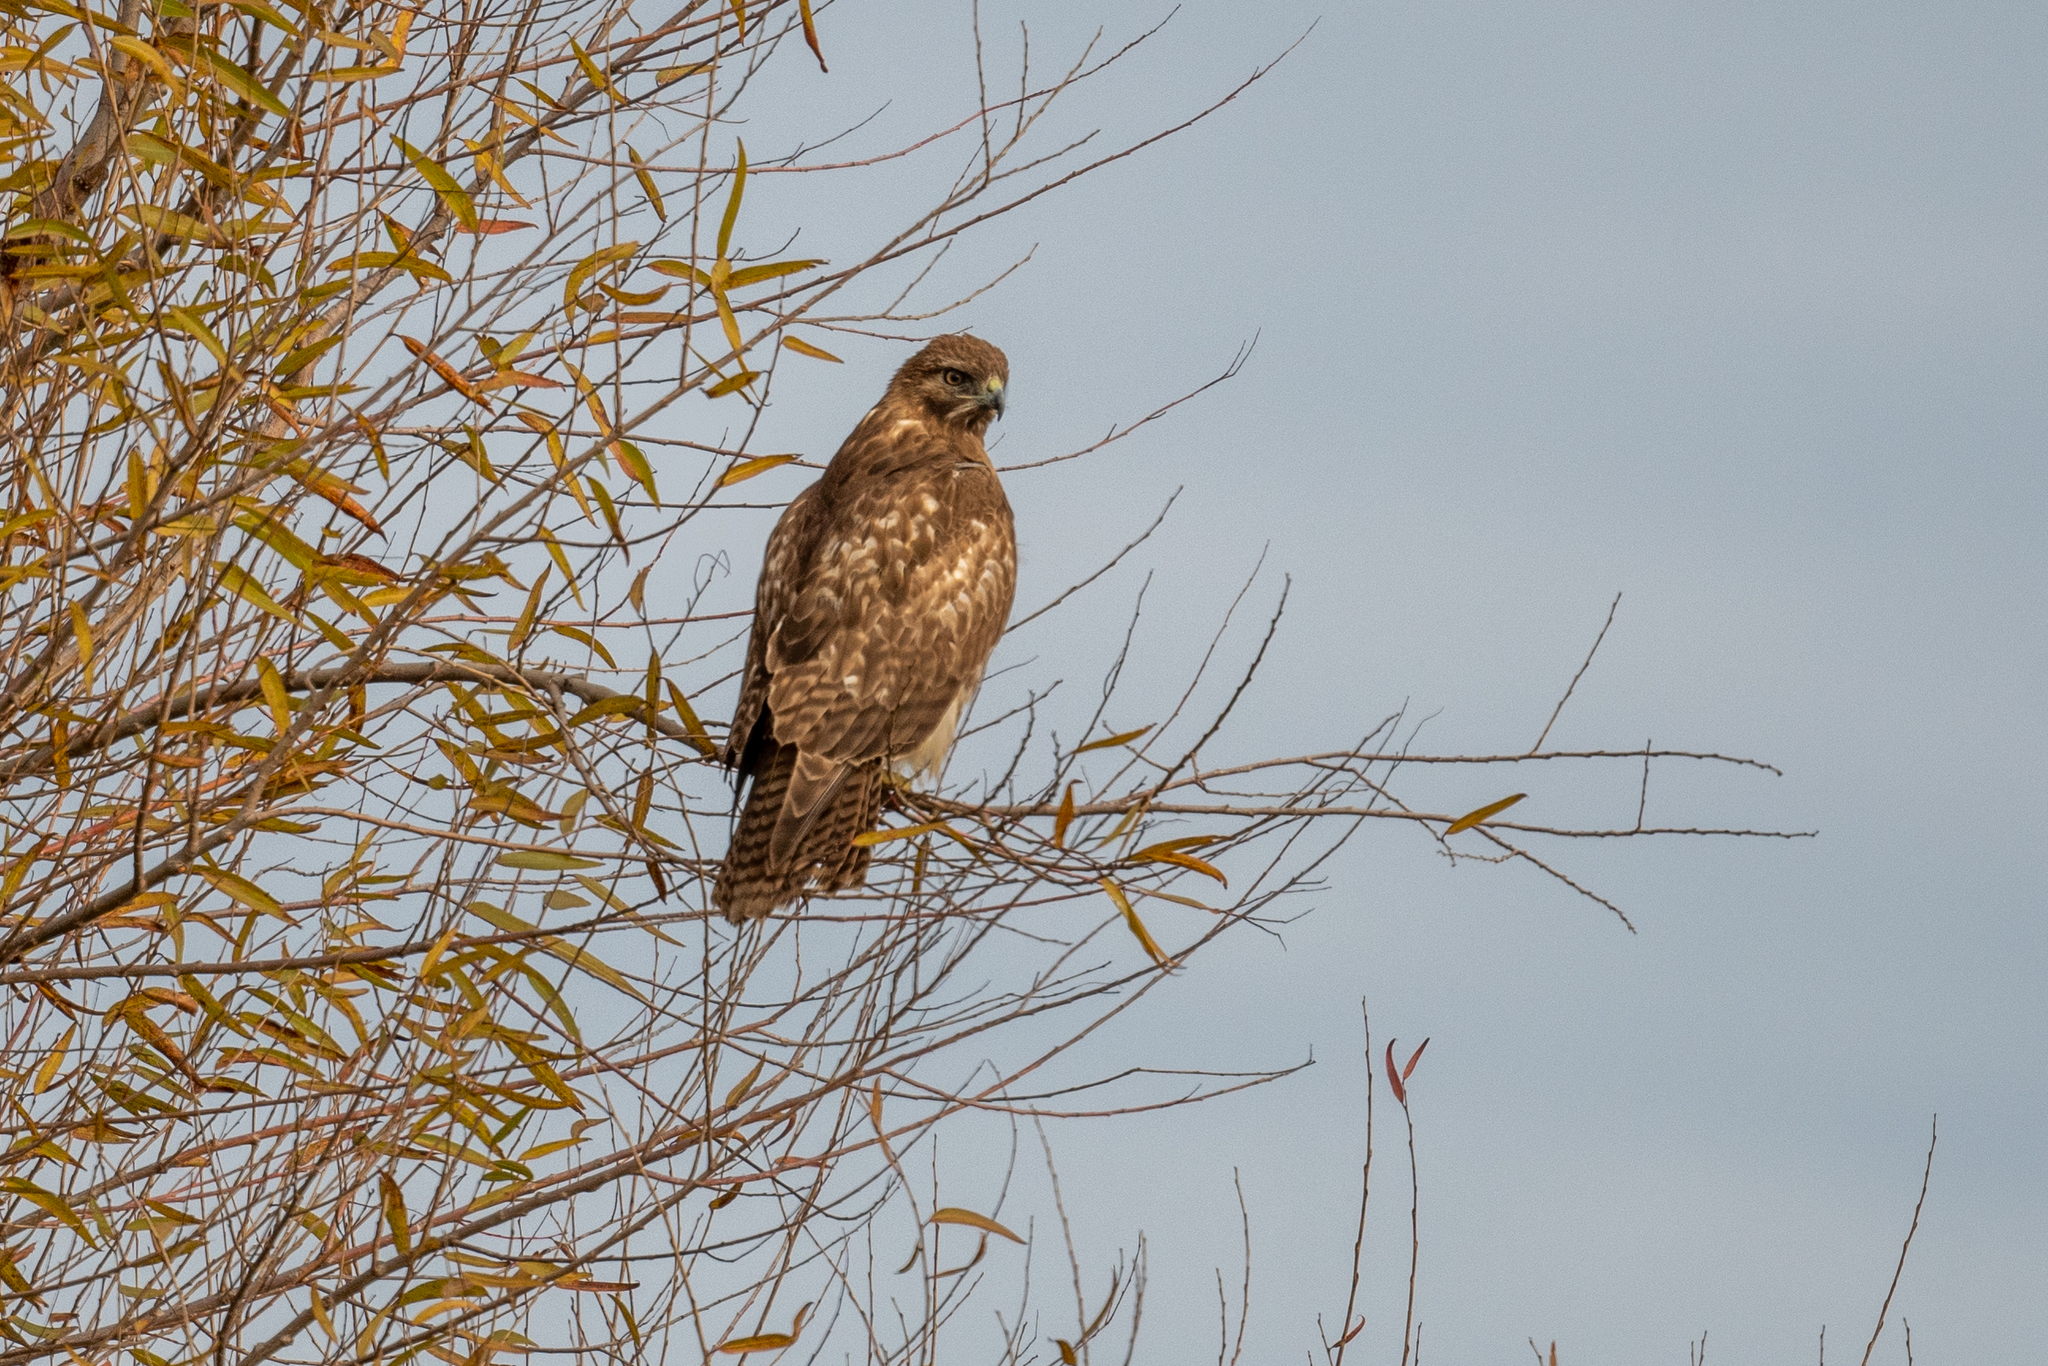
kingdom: Animalia
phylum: Chordata
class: Aves
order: Accipitriformes
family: Accipitridae
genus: Buteo
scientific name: Buteo jamaicensis
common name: Red-tailed hawk
